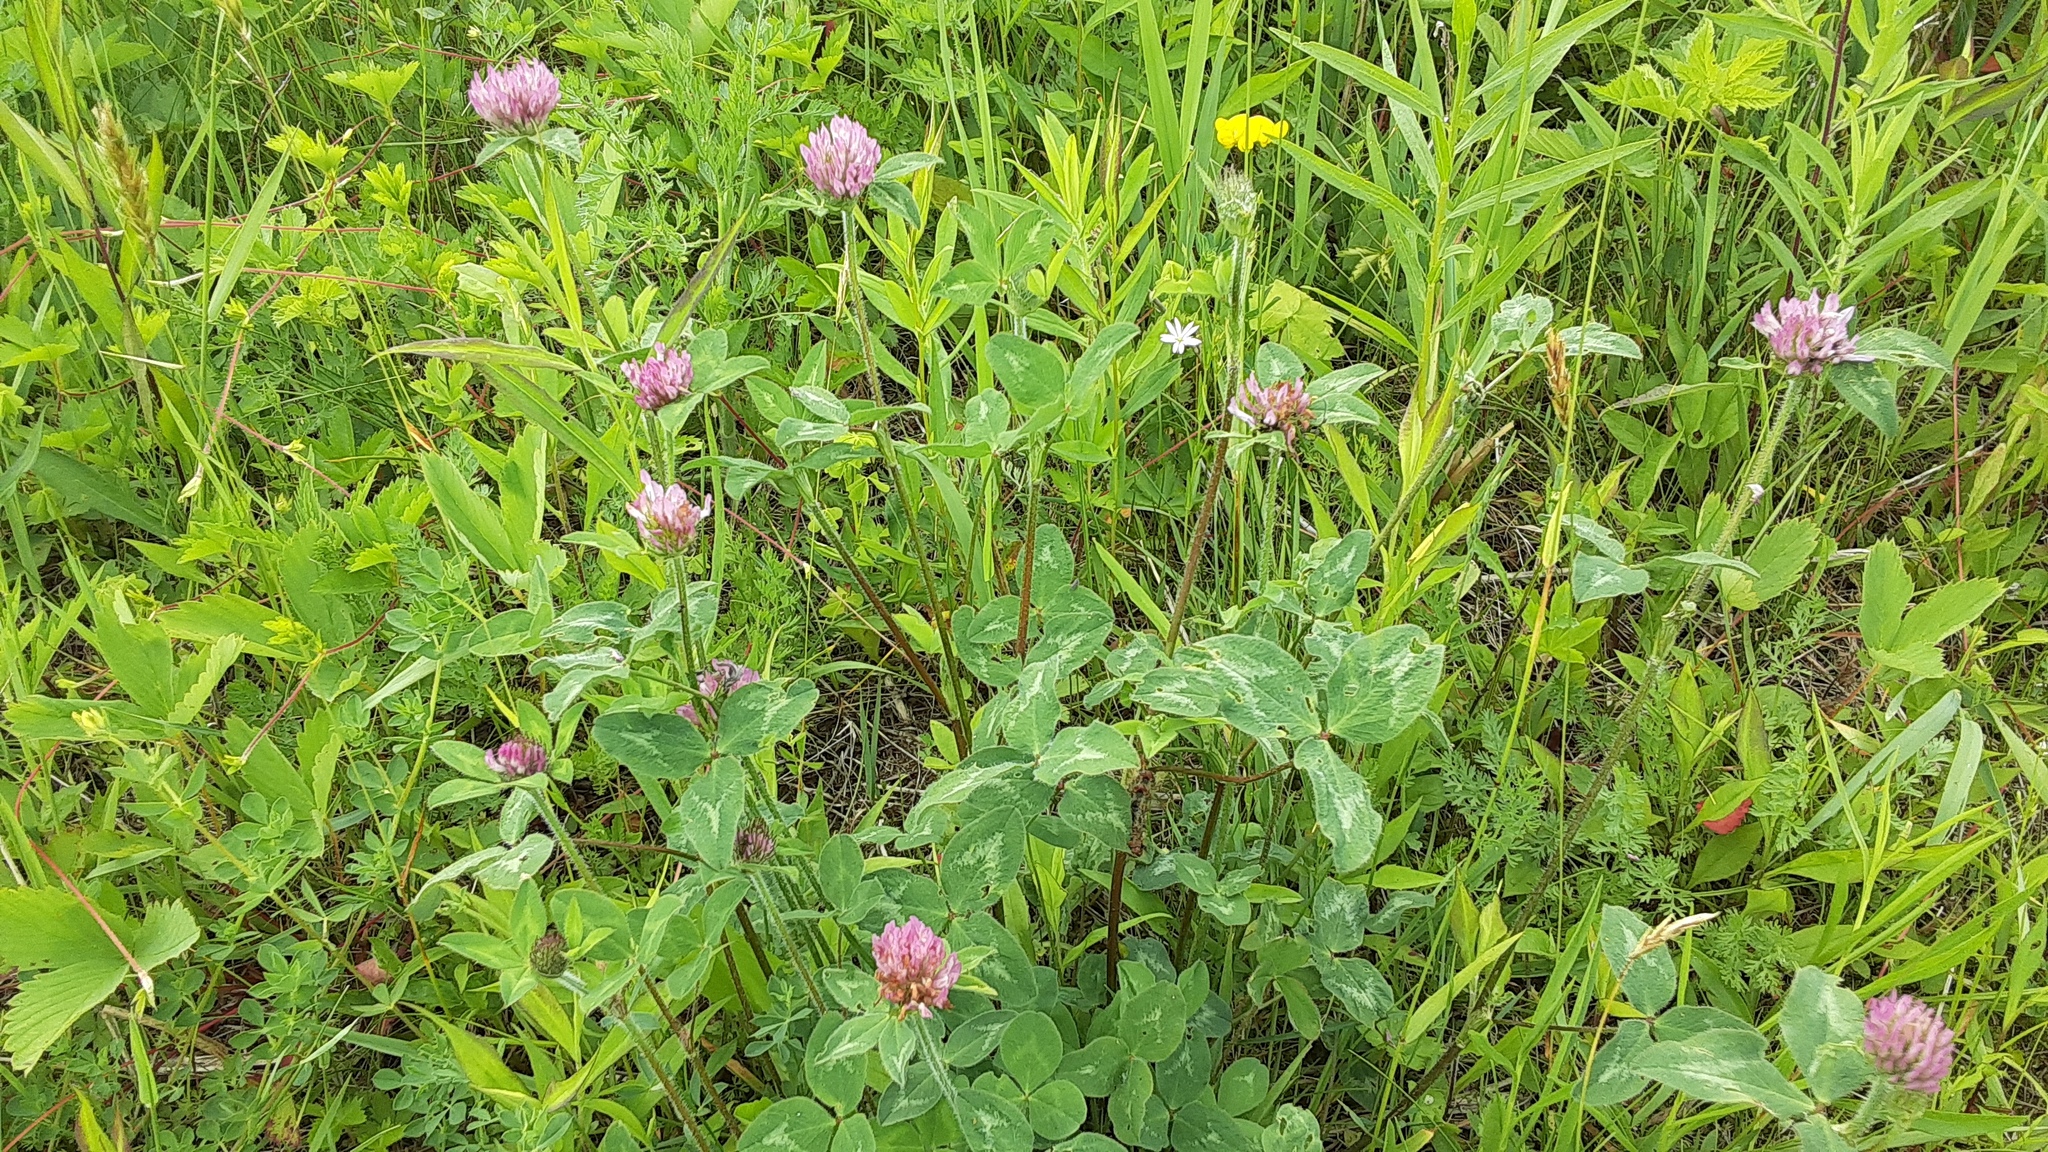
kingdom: Plantae
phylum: Tracheophyta
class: Magnoliopsida
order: Fabales
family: Fabaceae
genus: Trifolium
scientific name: Trifolium pratense
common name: Red clover
